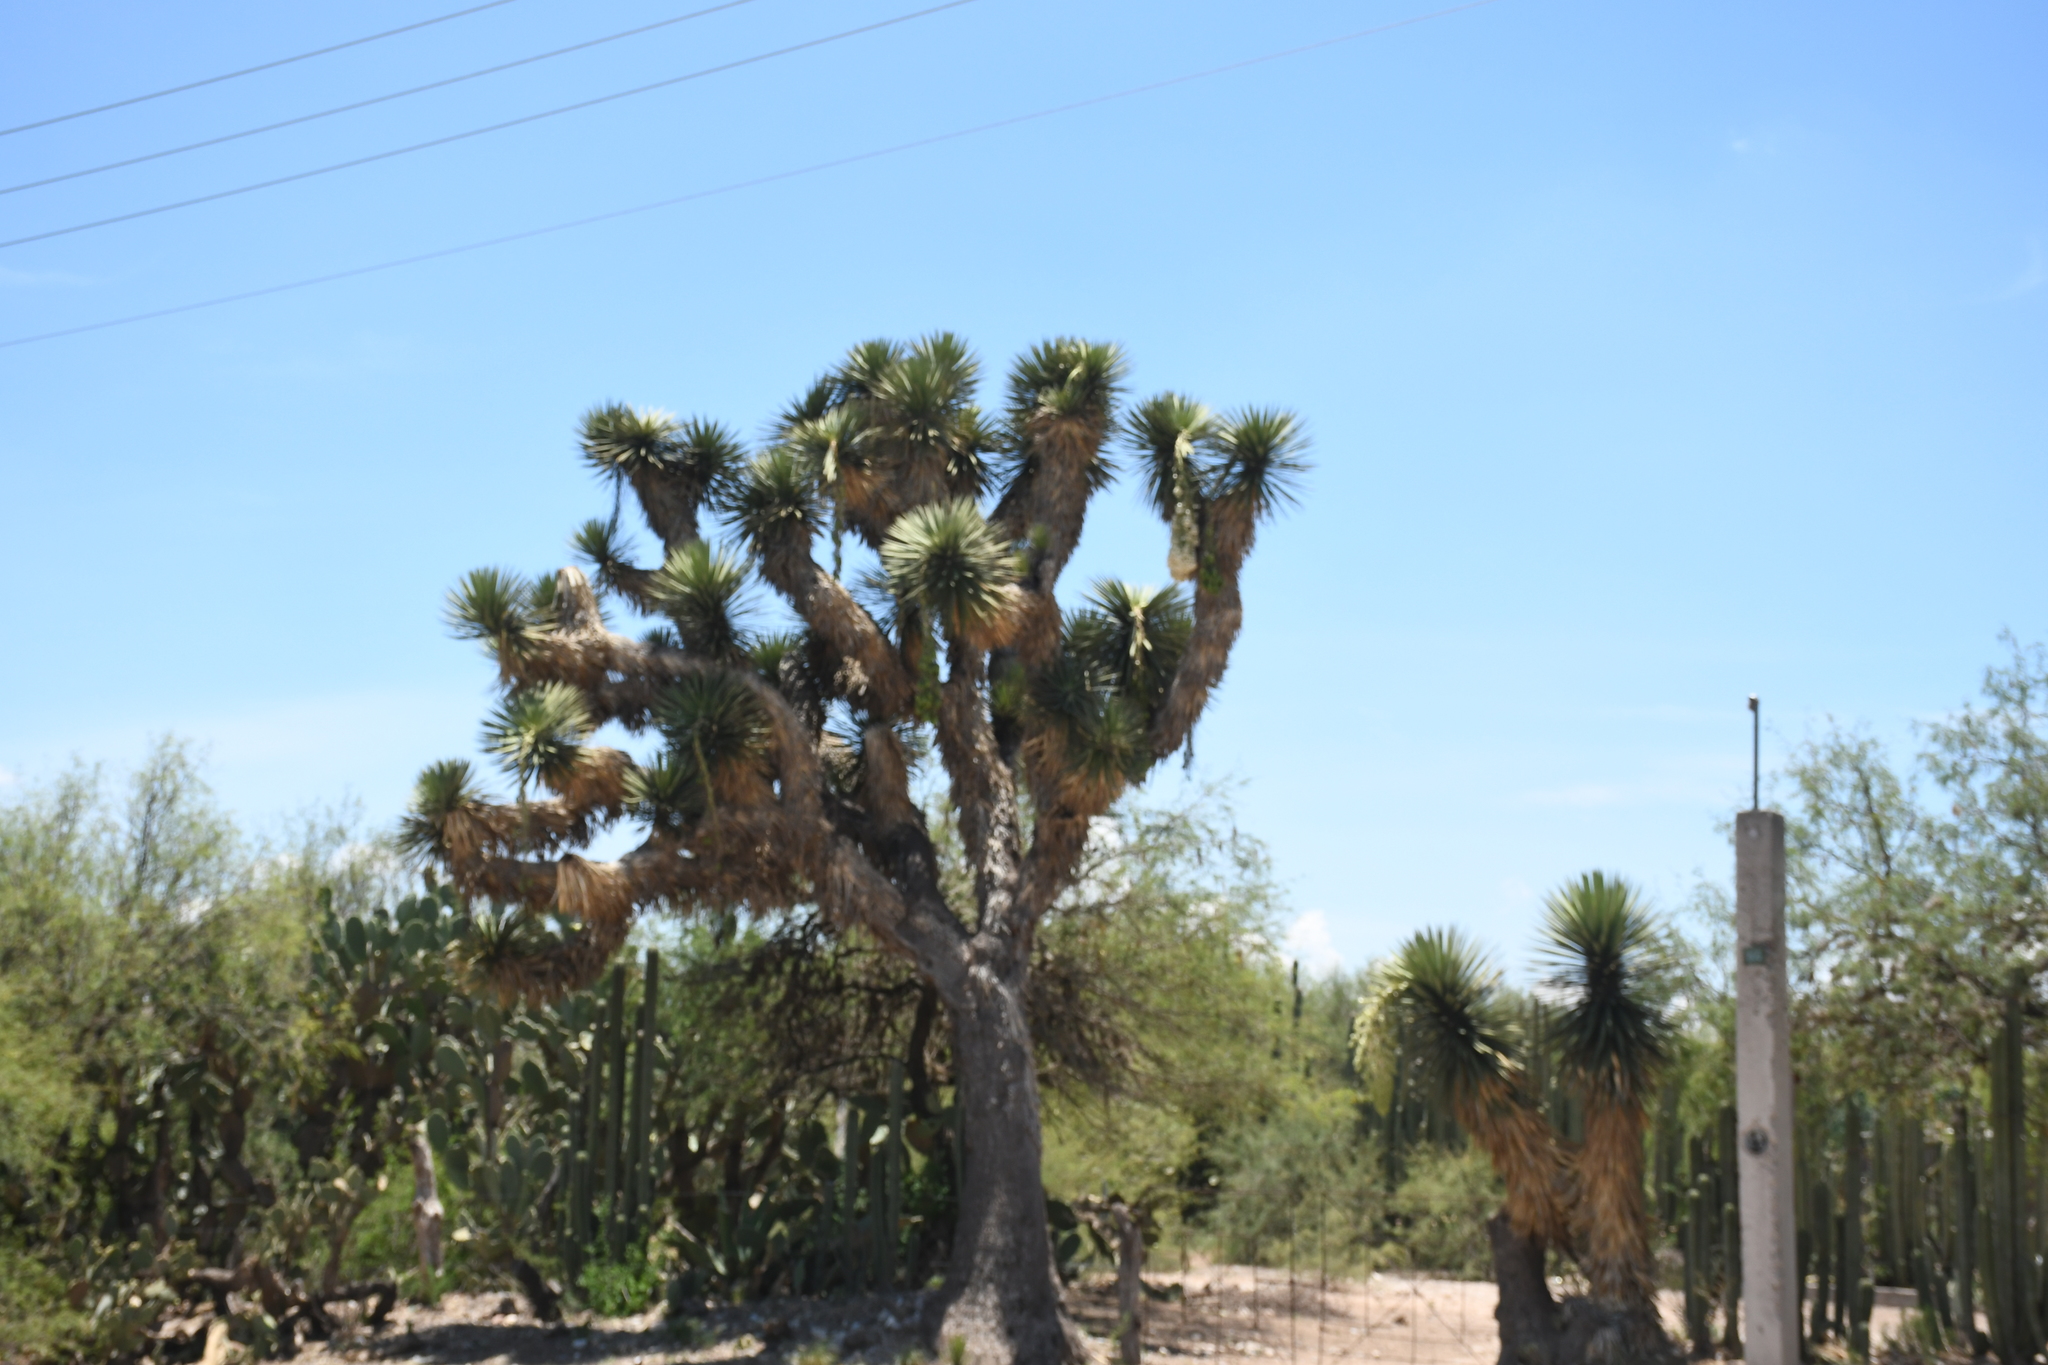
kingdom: Plantae
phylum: Tracheophyta
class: Liliopsida
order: Asparagales
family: Asparagaceae
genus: Yucca
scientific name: Yucca filifera
